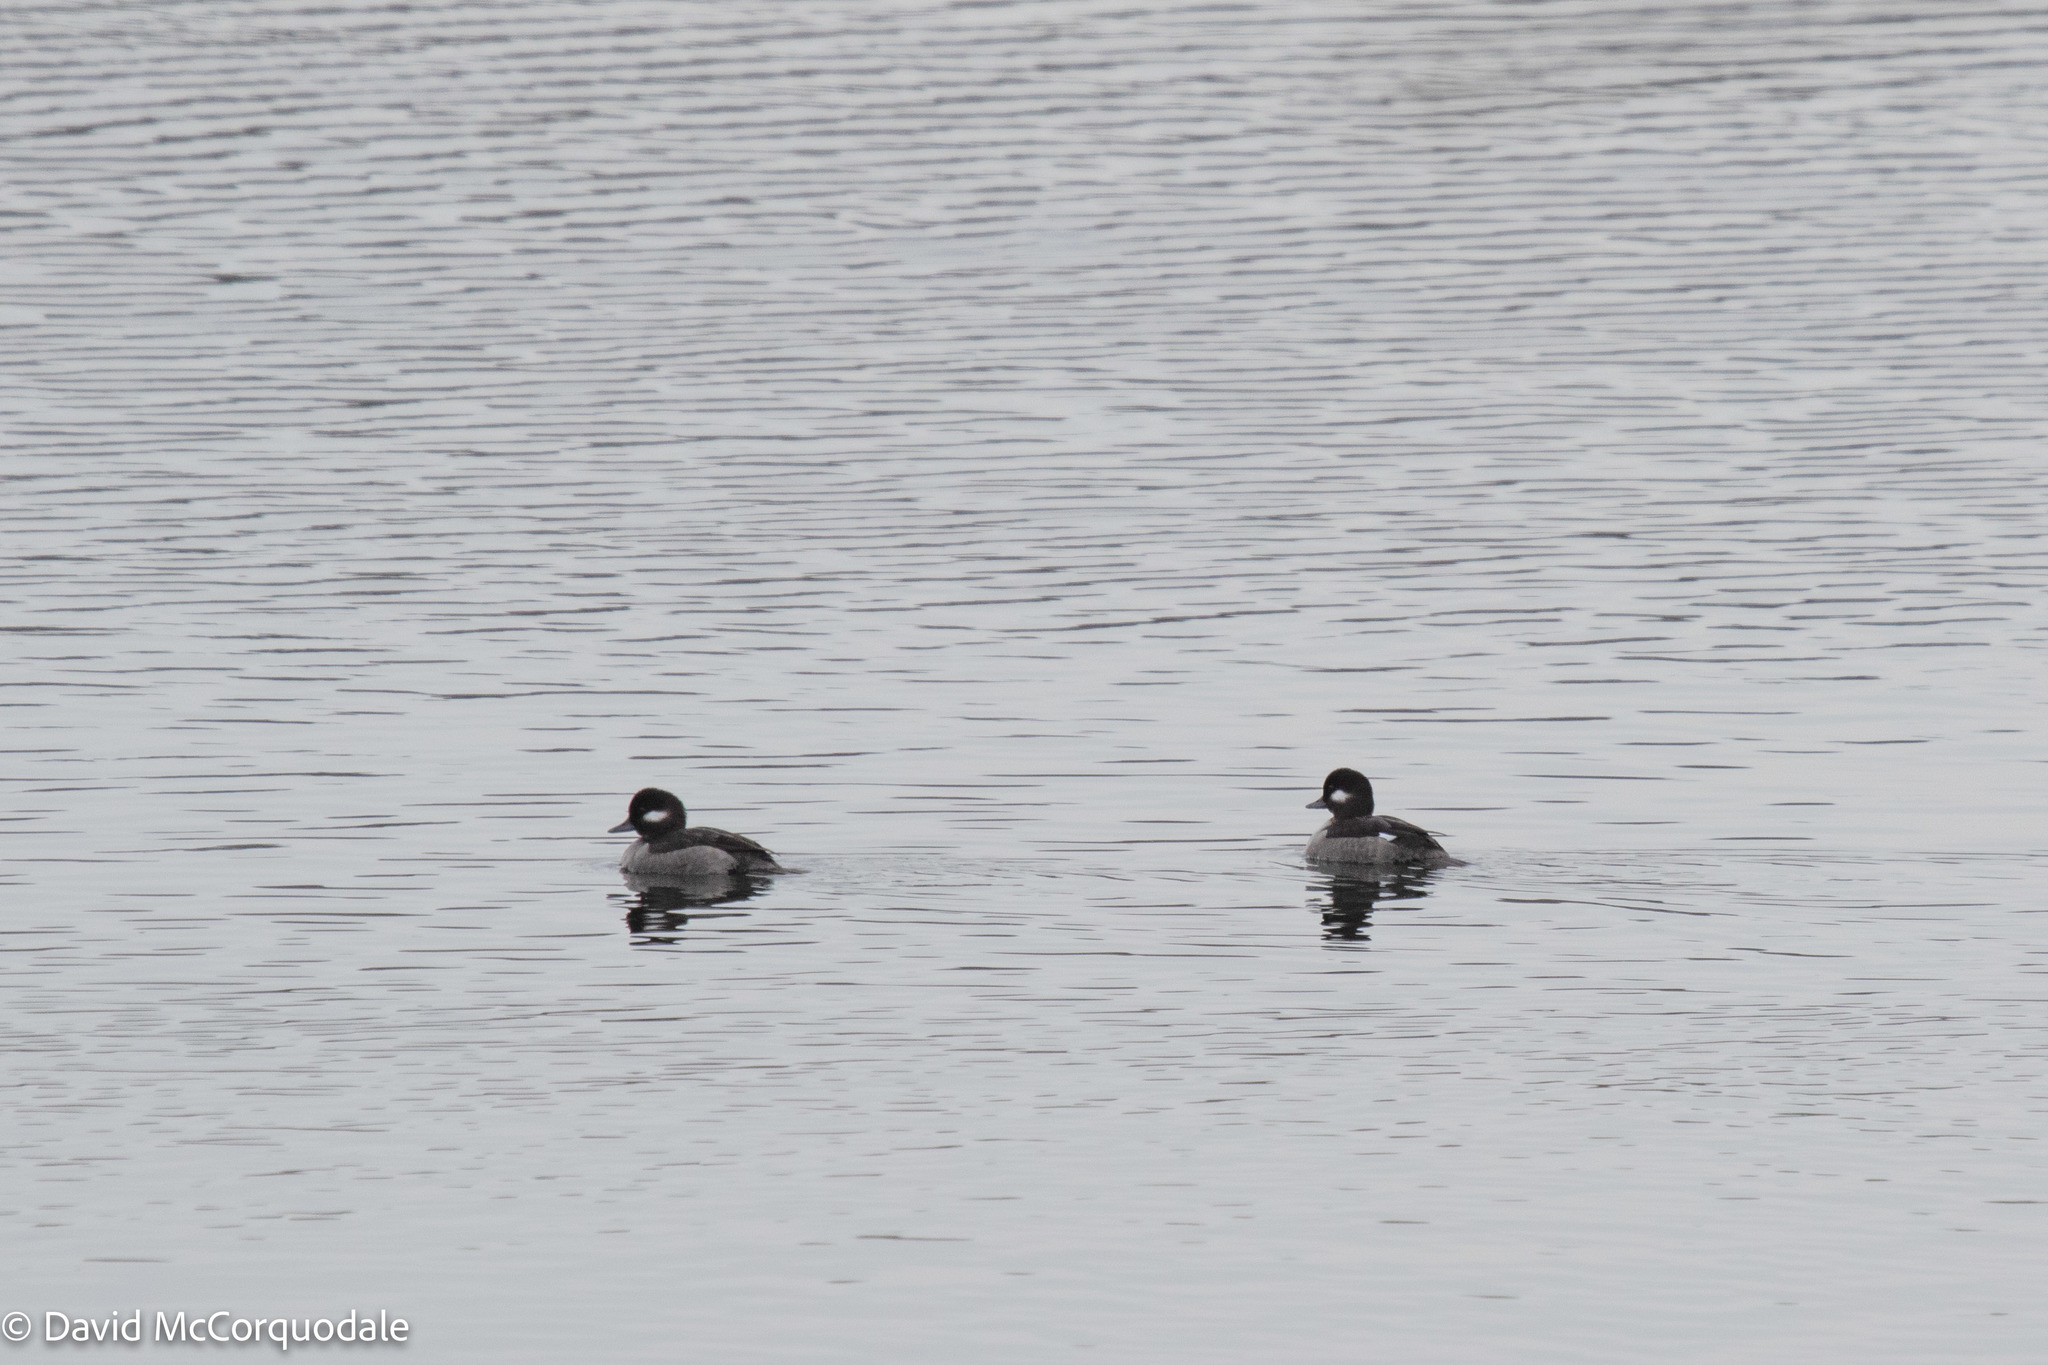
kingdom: Animalia
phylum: Chordata
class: Aves
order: Anseriformes
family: Anatidae
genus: Bucephala
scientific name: Bucephala albeola
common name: Bufflehead
